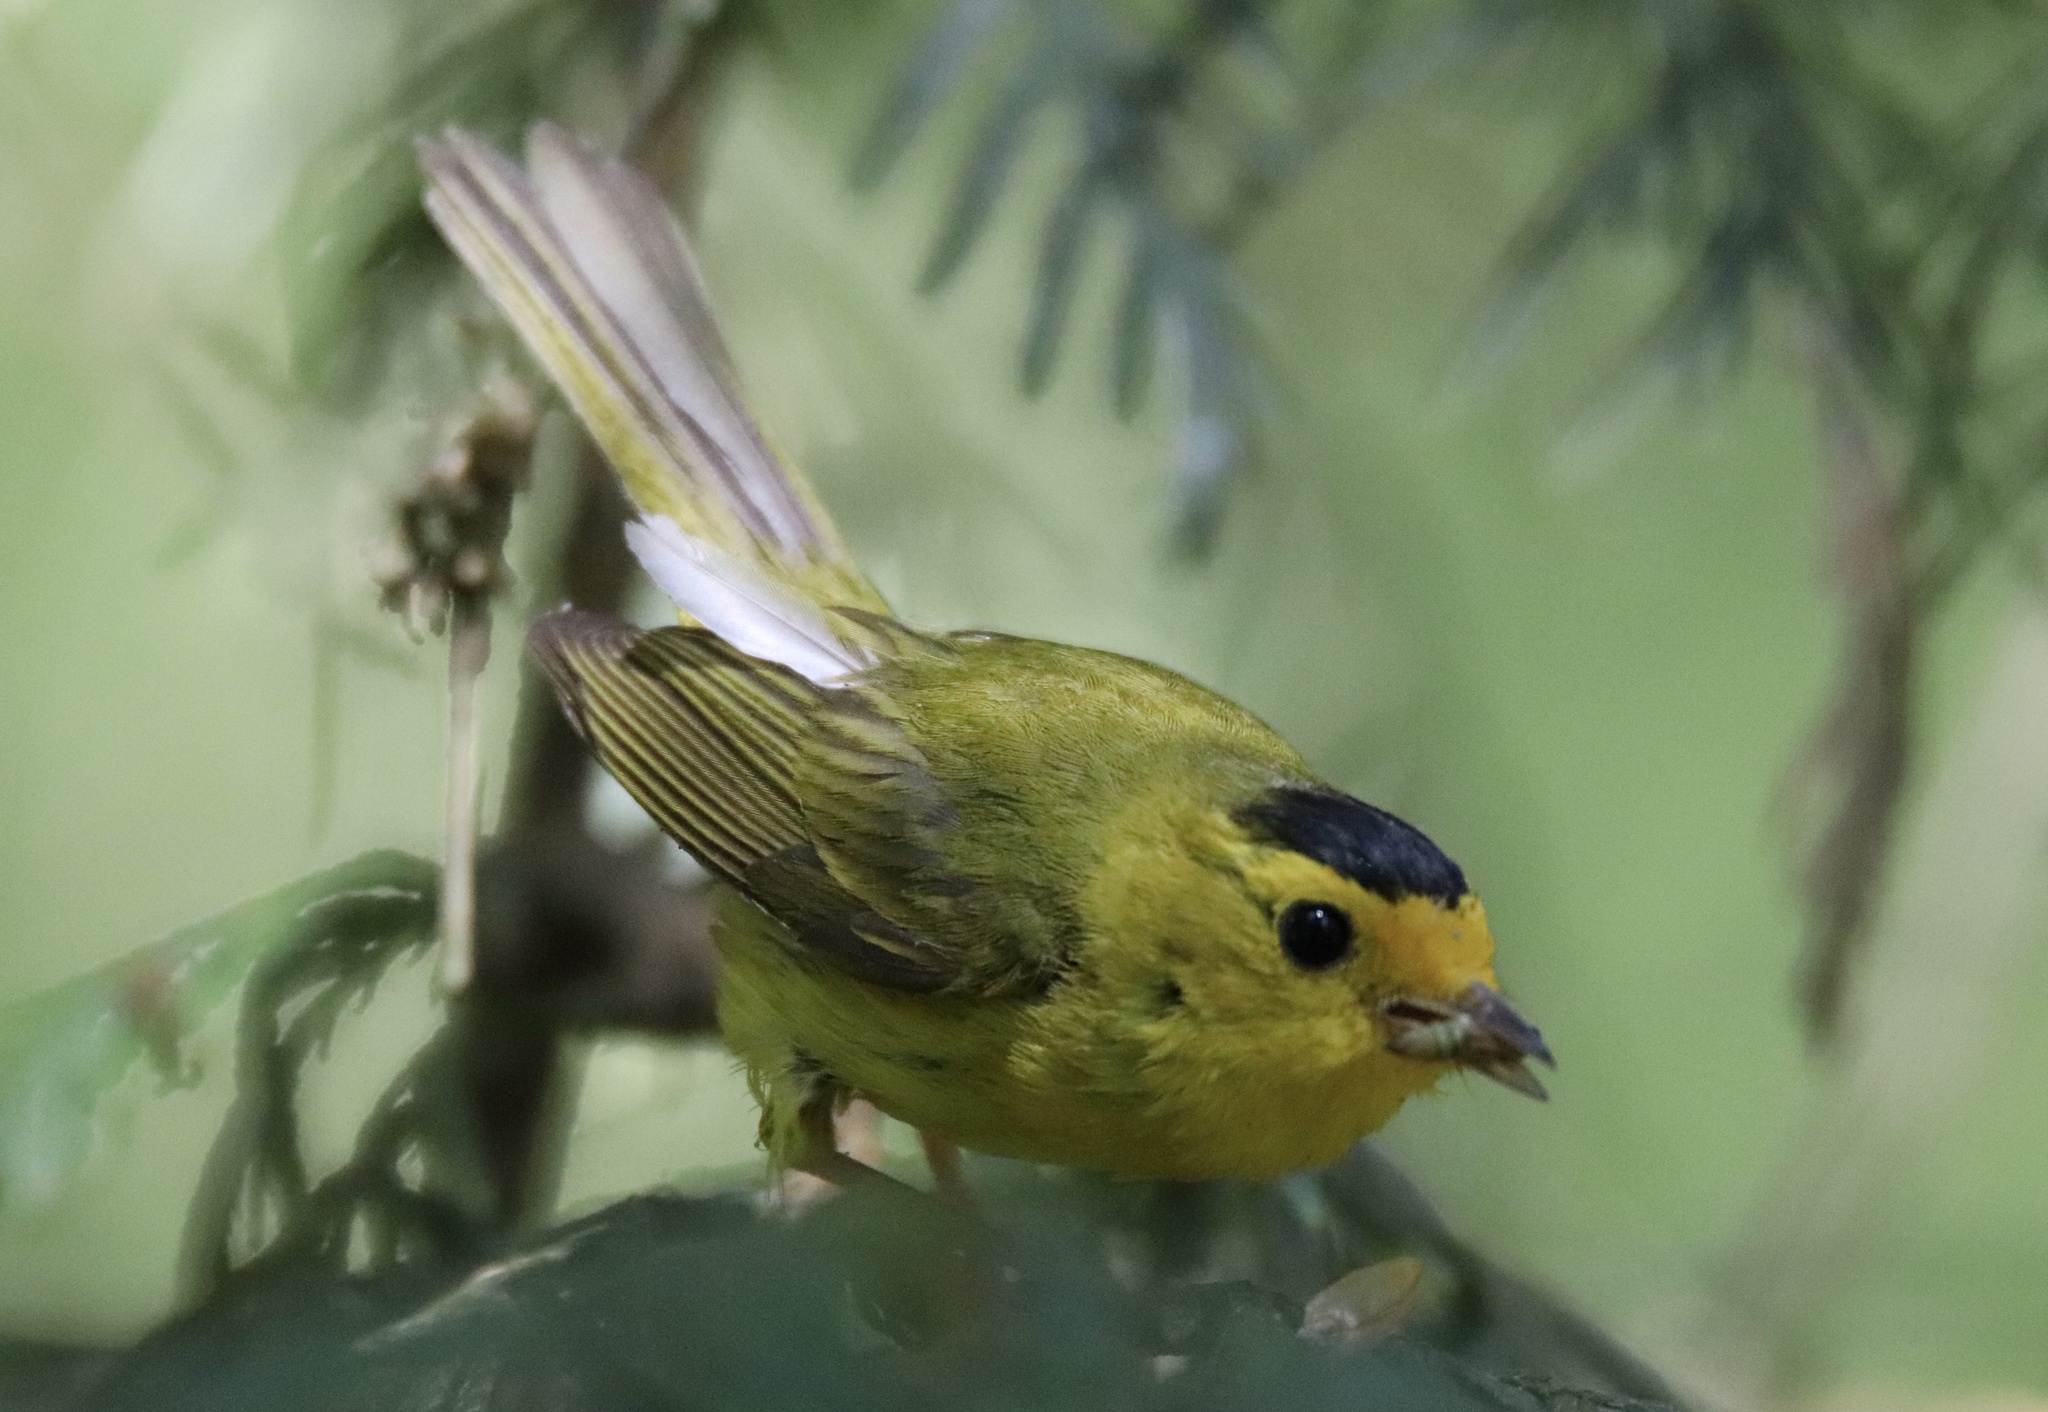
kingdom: Animalia
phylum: Chordata
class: Aves
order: Passeriformes
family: Parulidae
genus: Cardellina
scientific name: Cardellina pusilla
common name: Wilson's warbler
